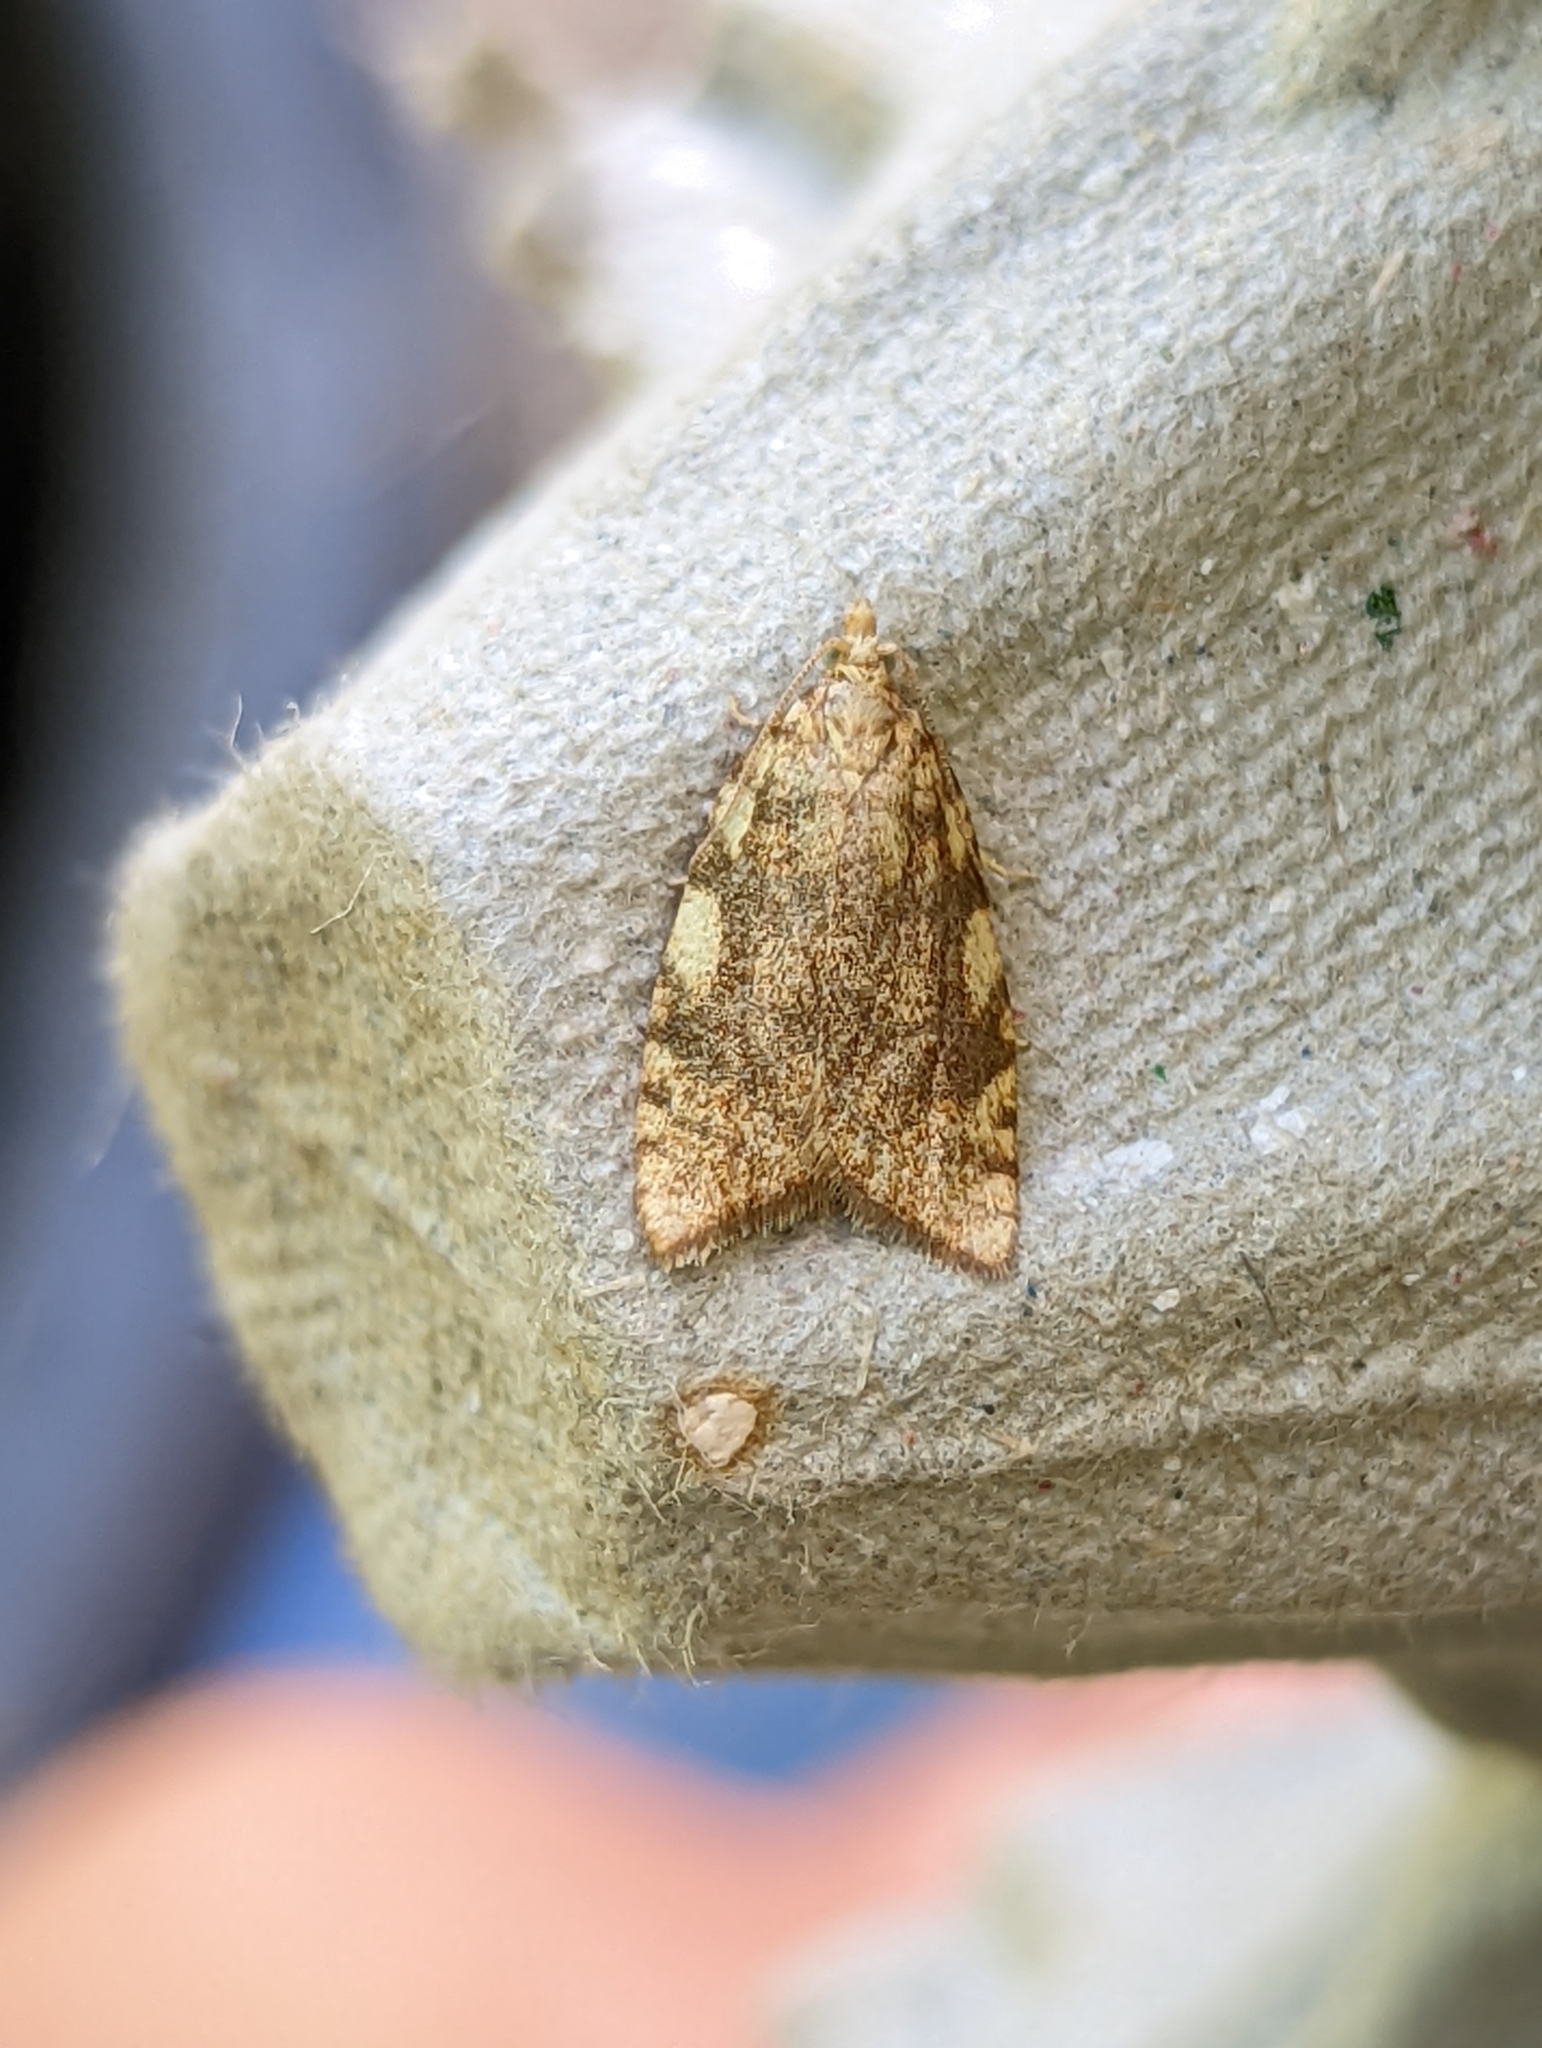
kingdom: Animalia
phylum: Arthropoda
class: Insecta
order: Lepidoptera
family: Tortricidae
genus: Aleimma
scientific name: Aleimma loeflingiana
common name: Yellow oak button
